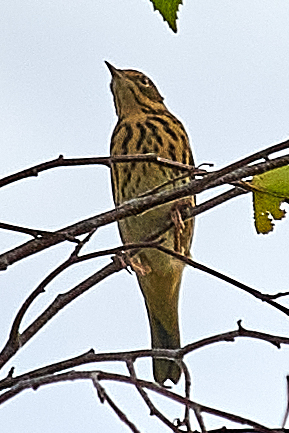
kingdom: Animalia
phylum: Chordata
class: Aves
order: Passeriformes
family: Motacillidae
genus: Anthus
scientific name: Anthus trivialis
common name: Tree pipit
